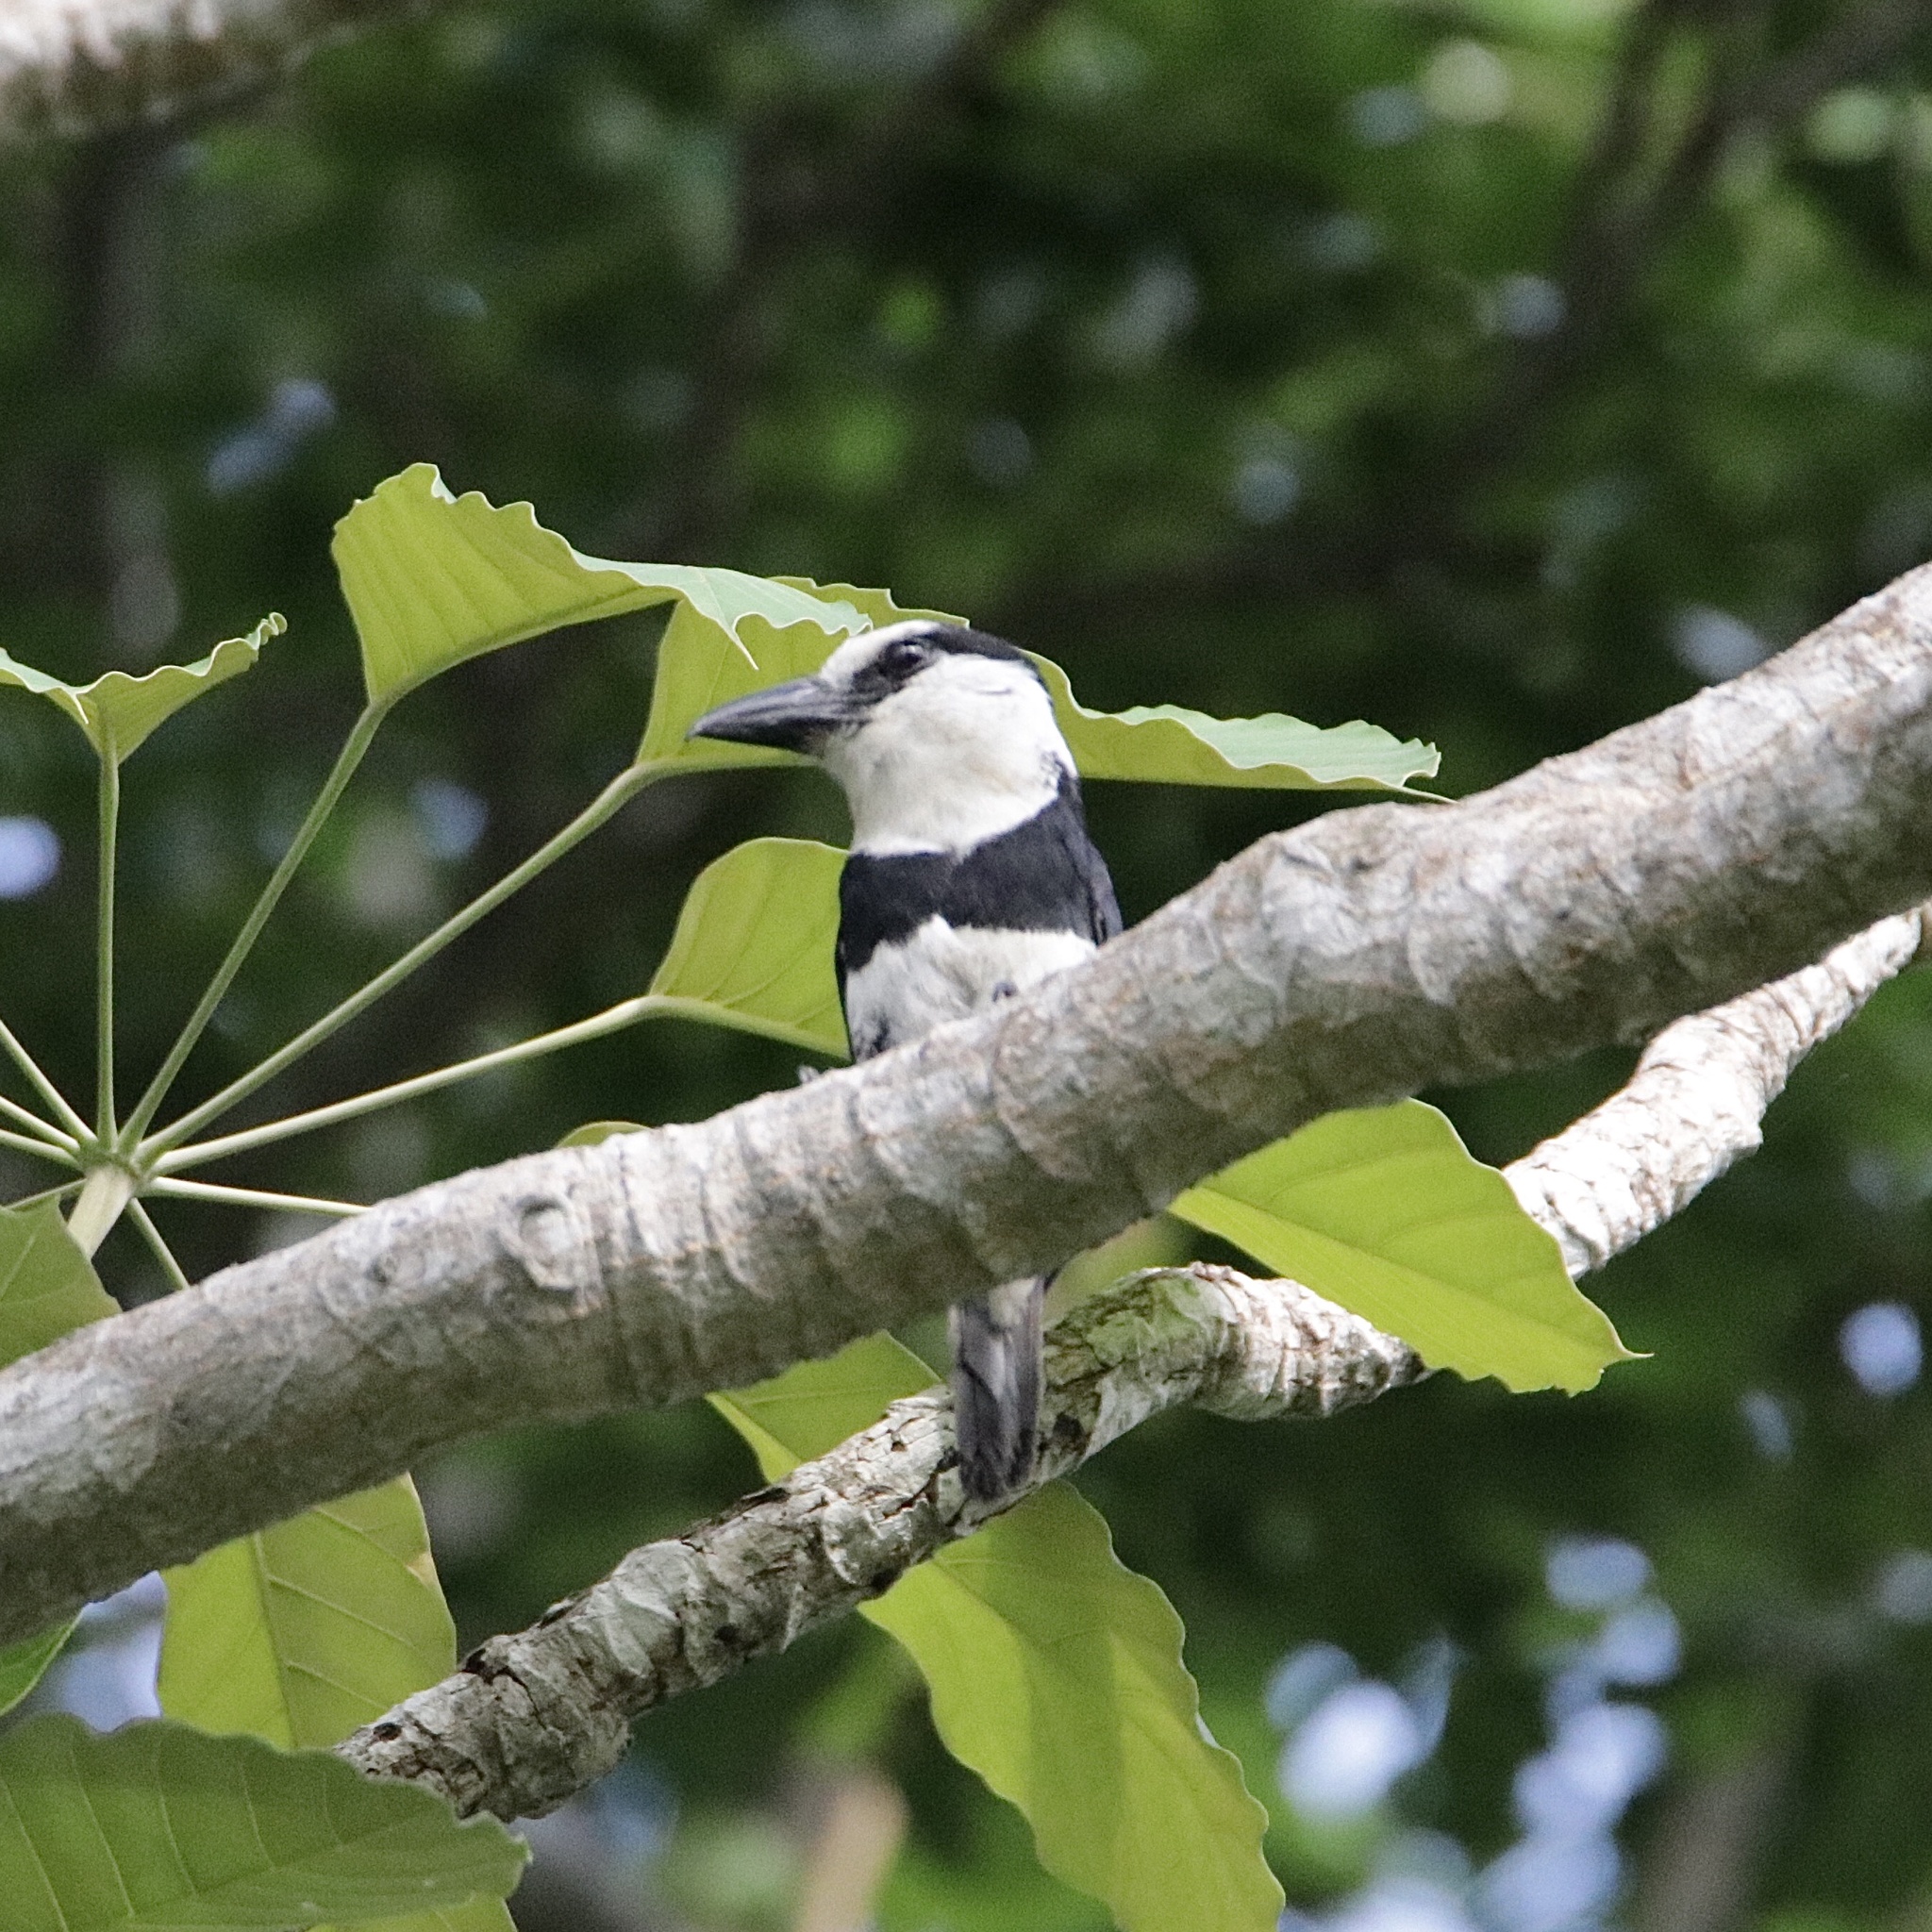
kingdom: Animalia
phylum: Chordata
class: Aves
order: Piciformes
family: Bucconidae
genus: Notharchus
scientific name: Notharchus hyperrhynchus
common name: White-necked puffbird
